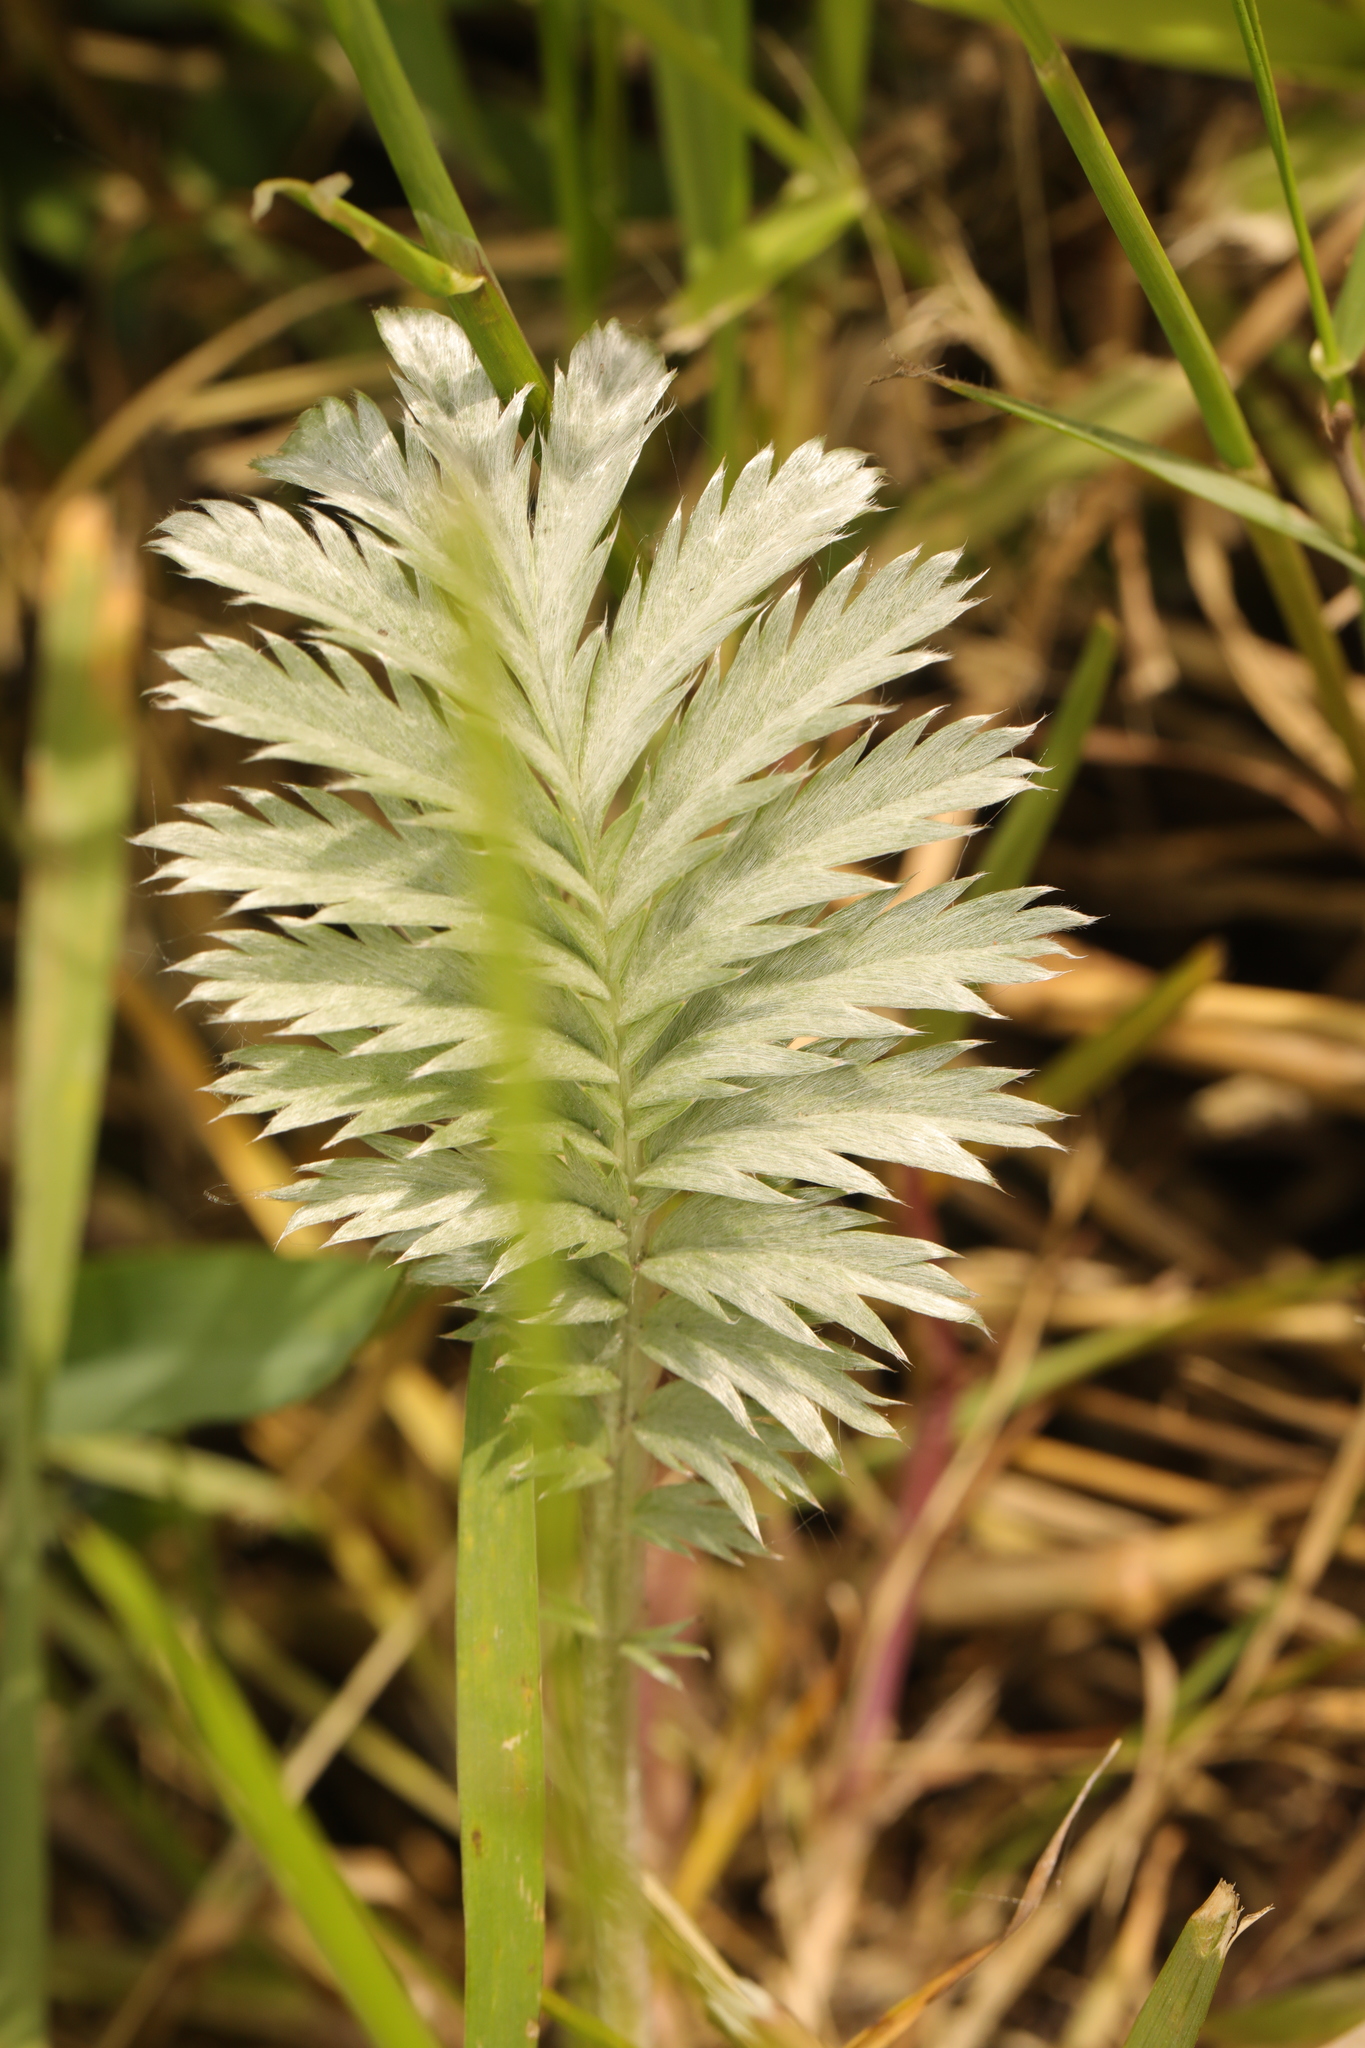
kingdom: Plantae
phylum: Tracheophyta
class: Magnoliopsida
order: Rosales
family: Rosaceae
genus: Argentina
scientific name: Argentina anserina
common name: Common silverweed
